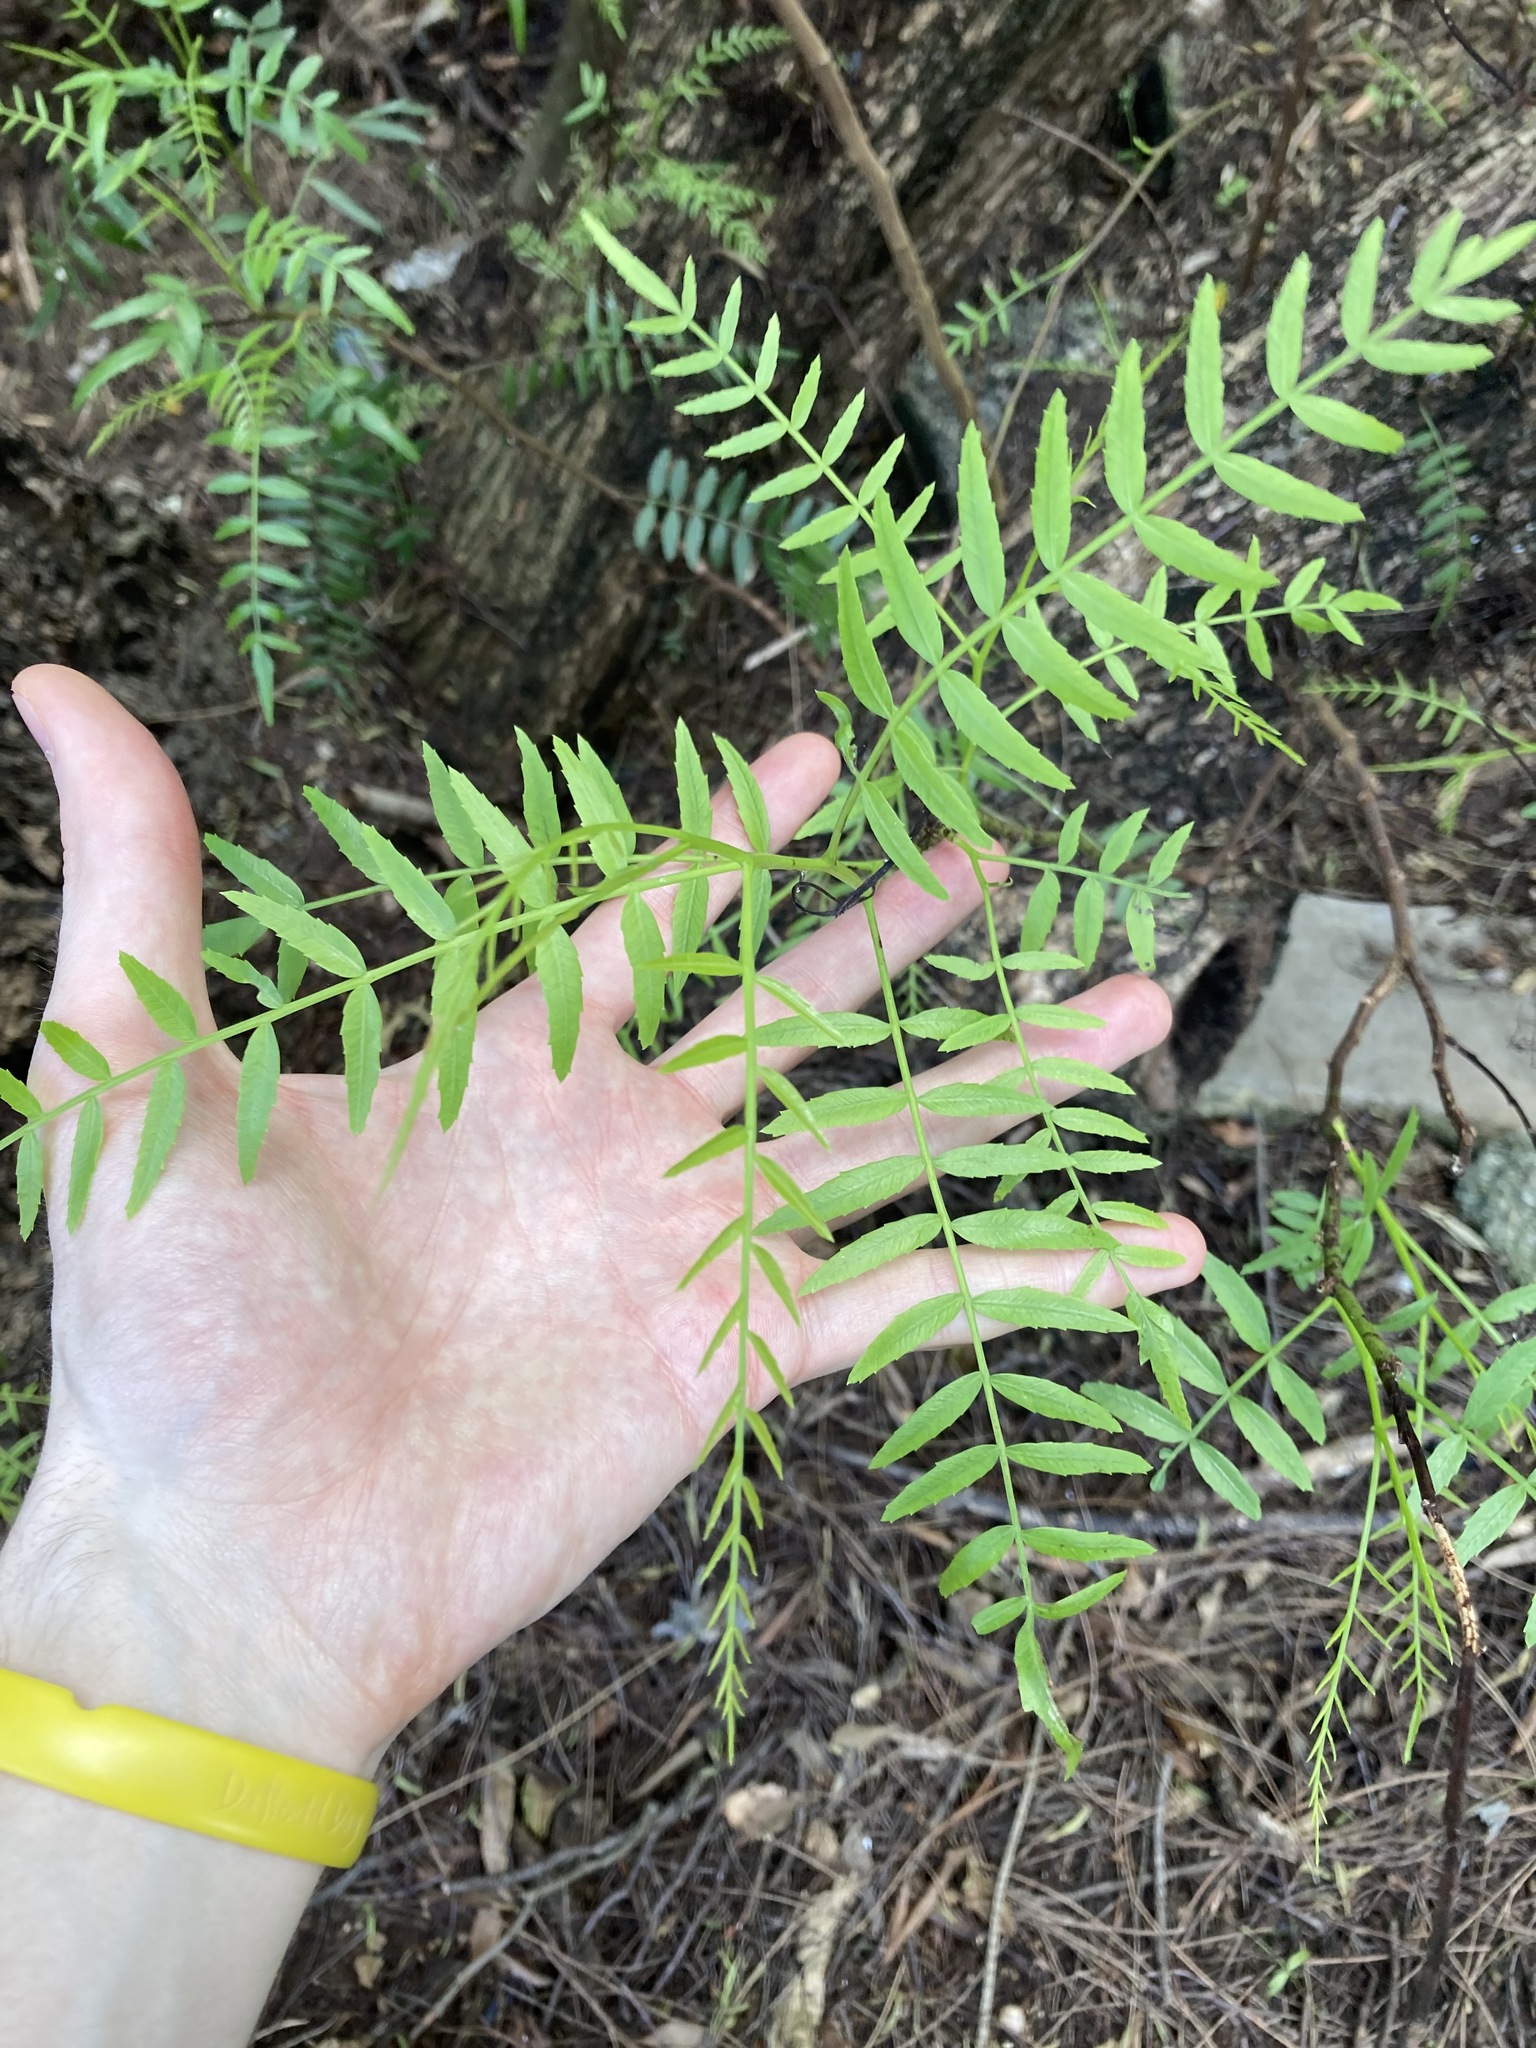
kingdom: Plantae
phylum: Tracheophyta
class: Magnoliopsida
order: Sapindales
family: Anacardiaceae
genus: Schinus
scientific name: Schinus molle
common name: Peruvian peppertree
